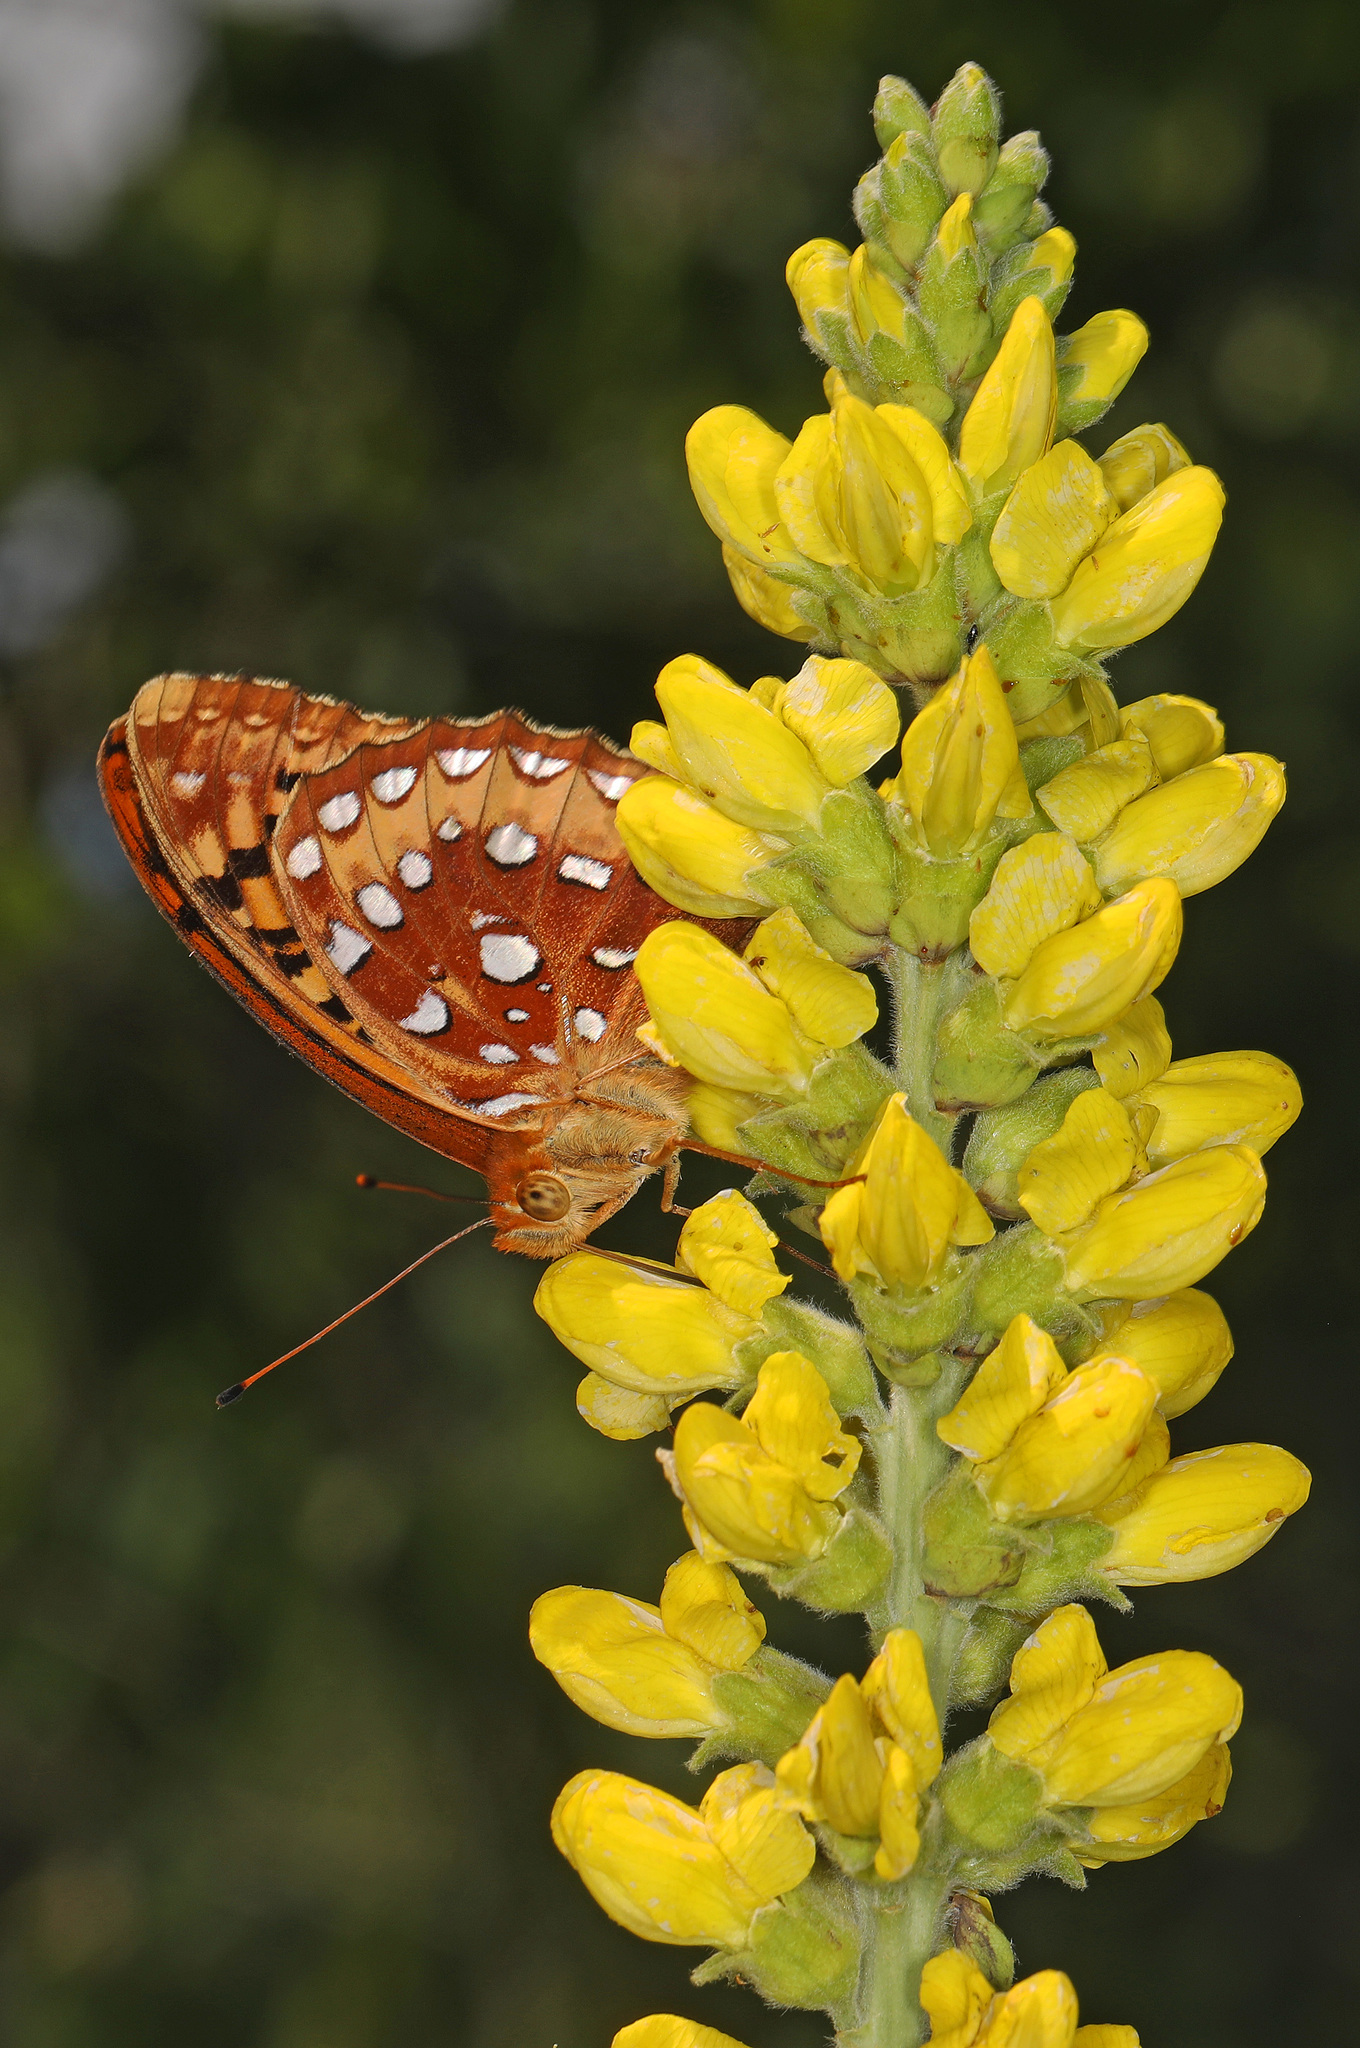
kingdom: Animalia
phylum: Arthropoda
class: Insecta
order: Lepidoptera
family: Nymphalidae
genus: Speyeria
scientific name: Speyeria cybele
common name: Great spangled fritillary
